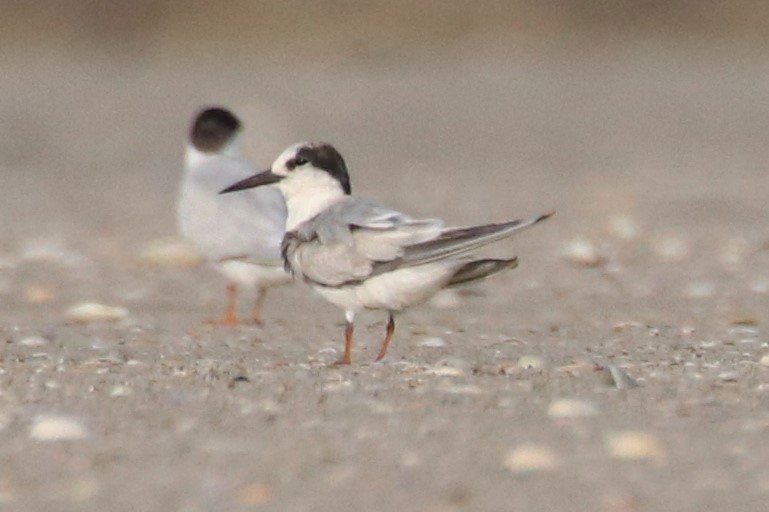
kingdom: Animalia
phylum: Chordata
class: Aves
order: Charadriiformes
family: Laridae
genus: Sterna
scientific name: Sterna hirundo
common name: Common tern
